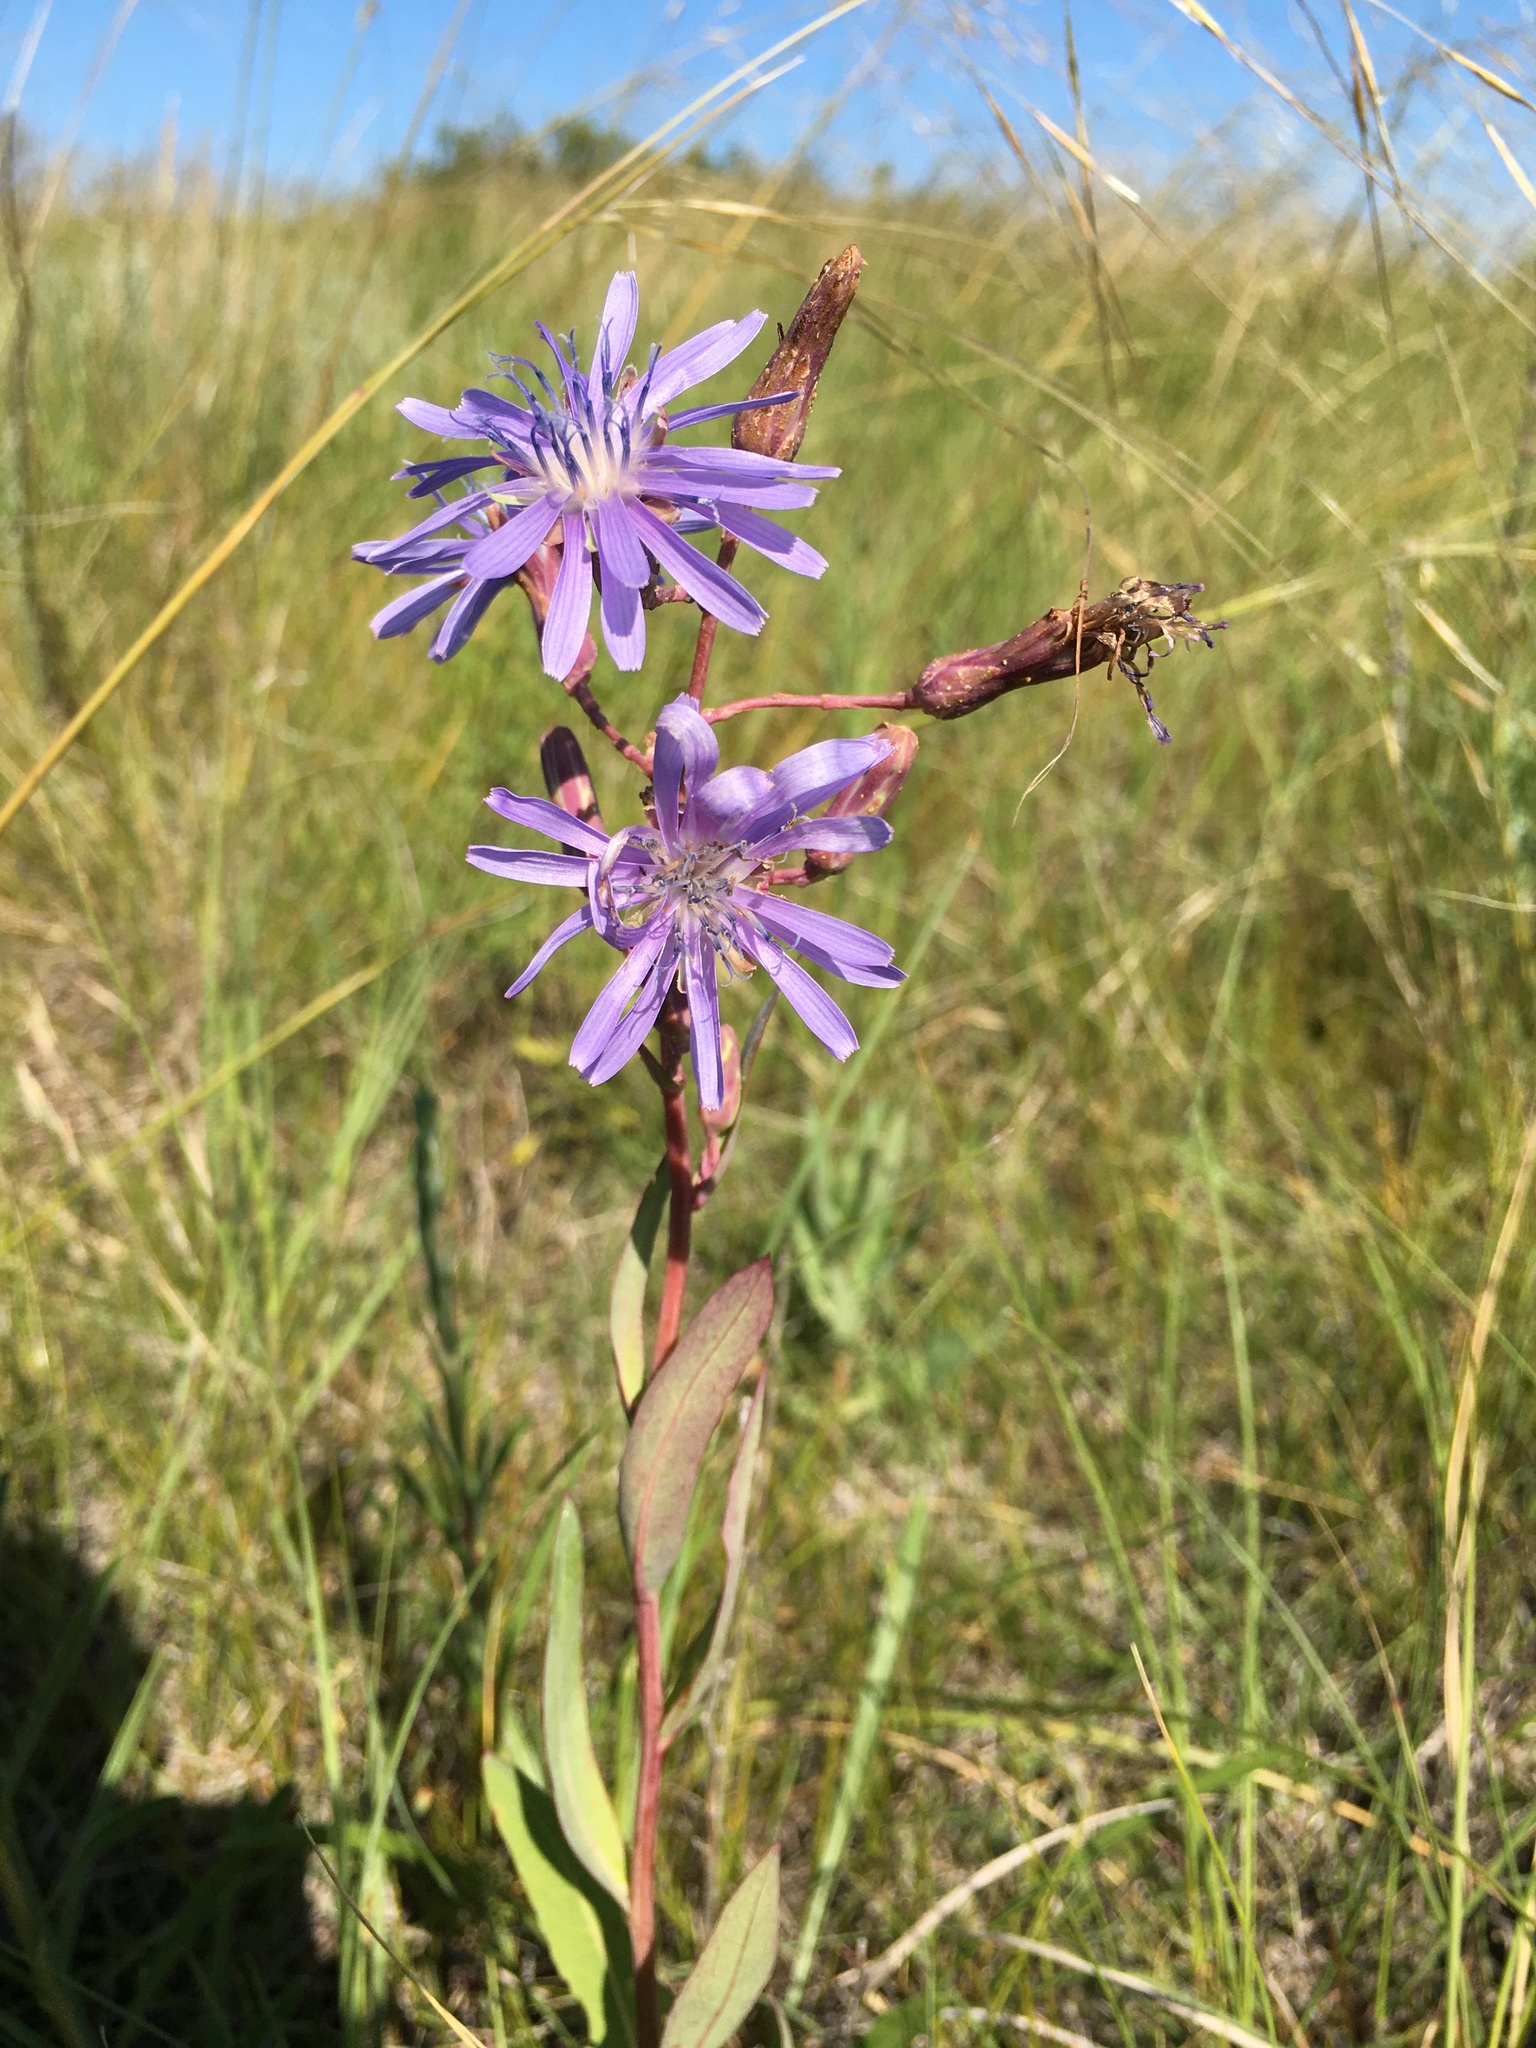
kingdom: Plantae
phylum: Tracheophyta
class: Magnoliopsida
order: Asterales
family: Asteraceae
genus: Lactuca
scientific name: Lactuca pulchella
